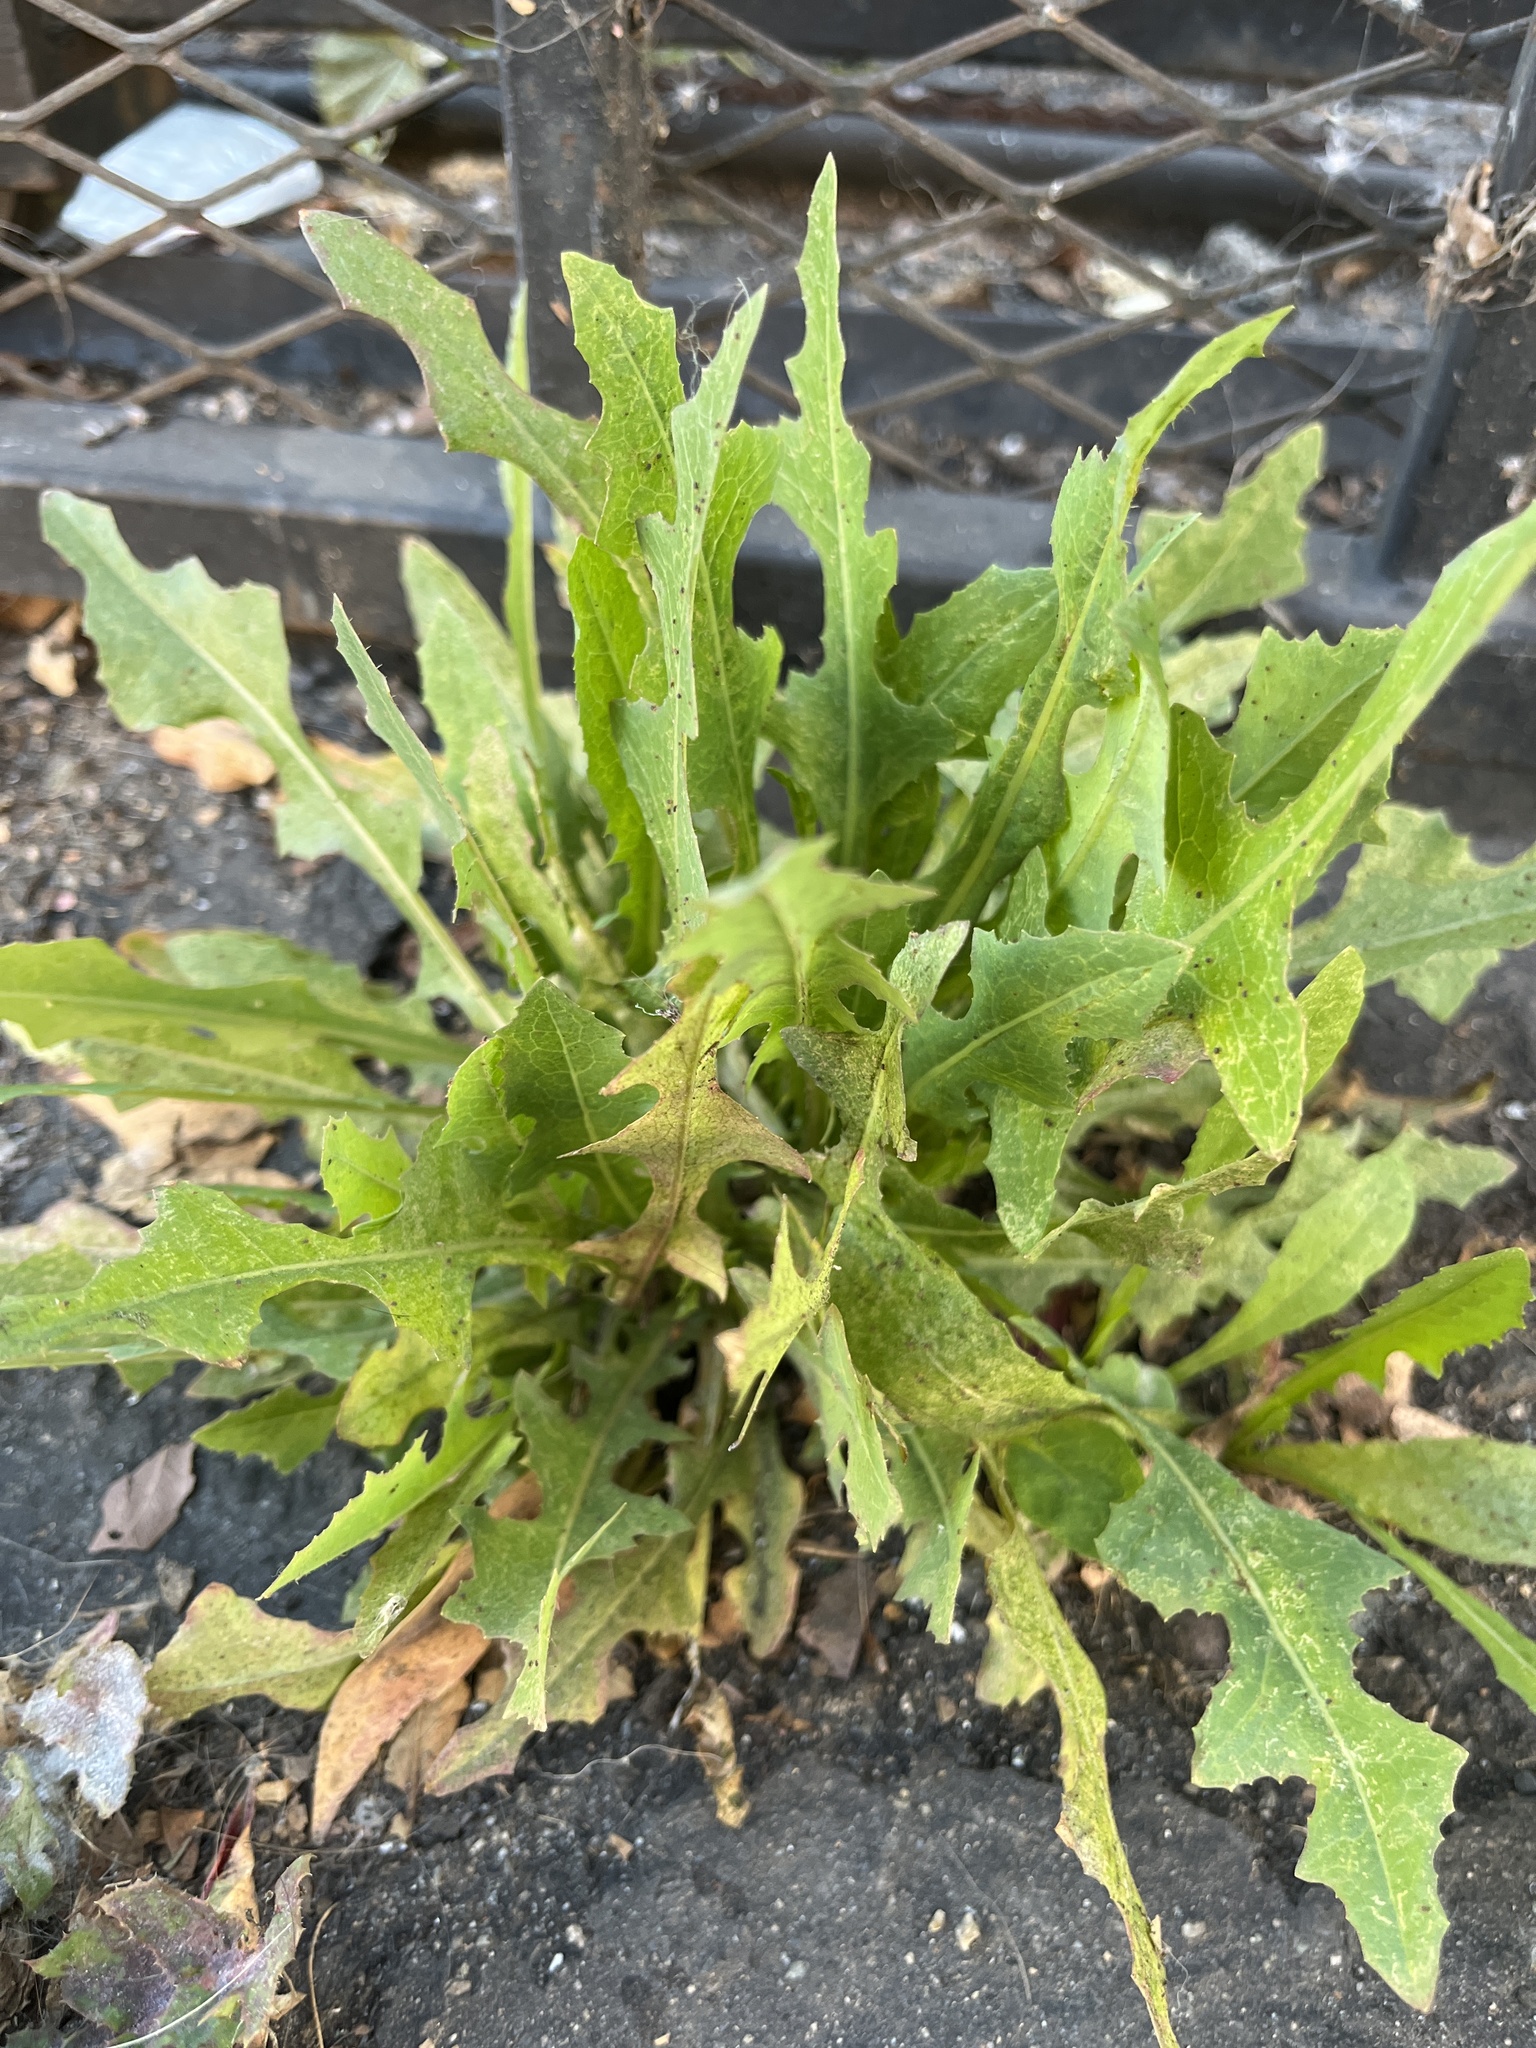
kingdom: Plantae
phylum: Tracheophyta
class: Magnoliopsida
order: Asterales
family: Asteraceae
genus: Lactuca
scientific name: Lactuca serriola
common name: Prickly lettuce
